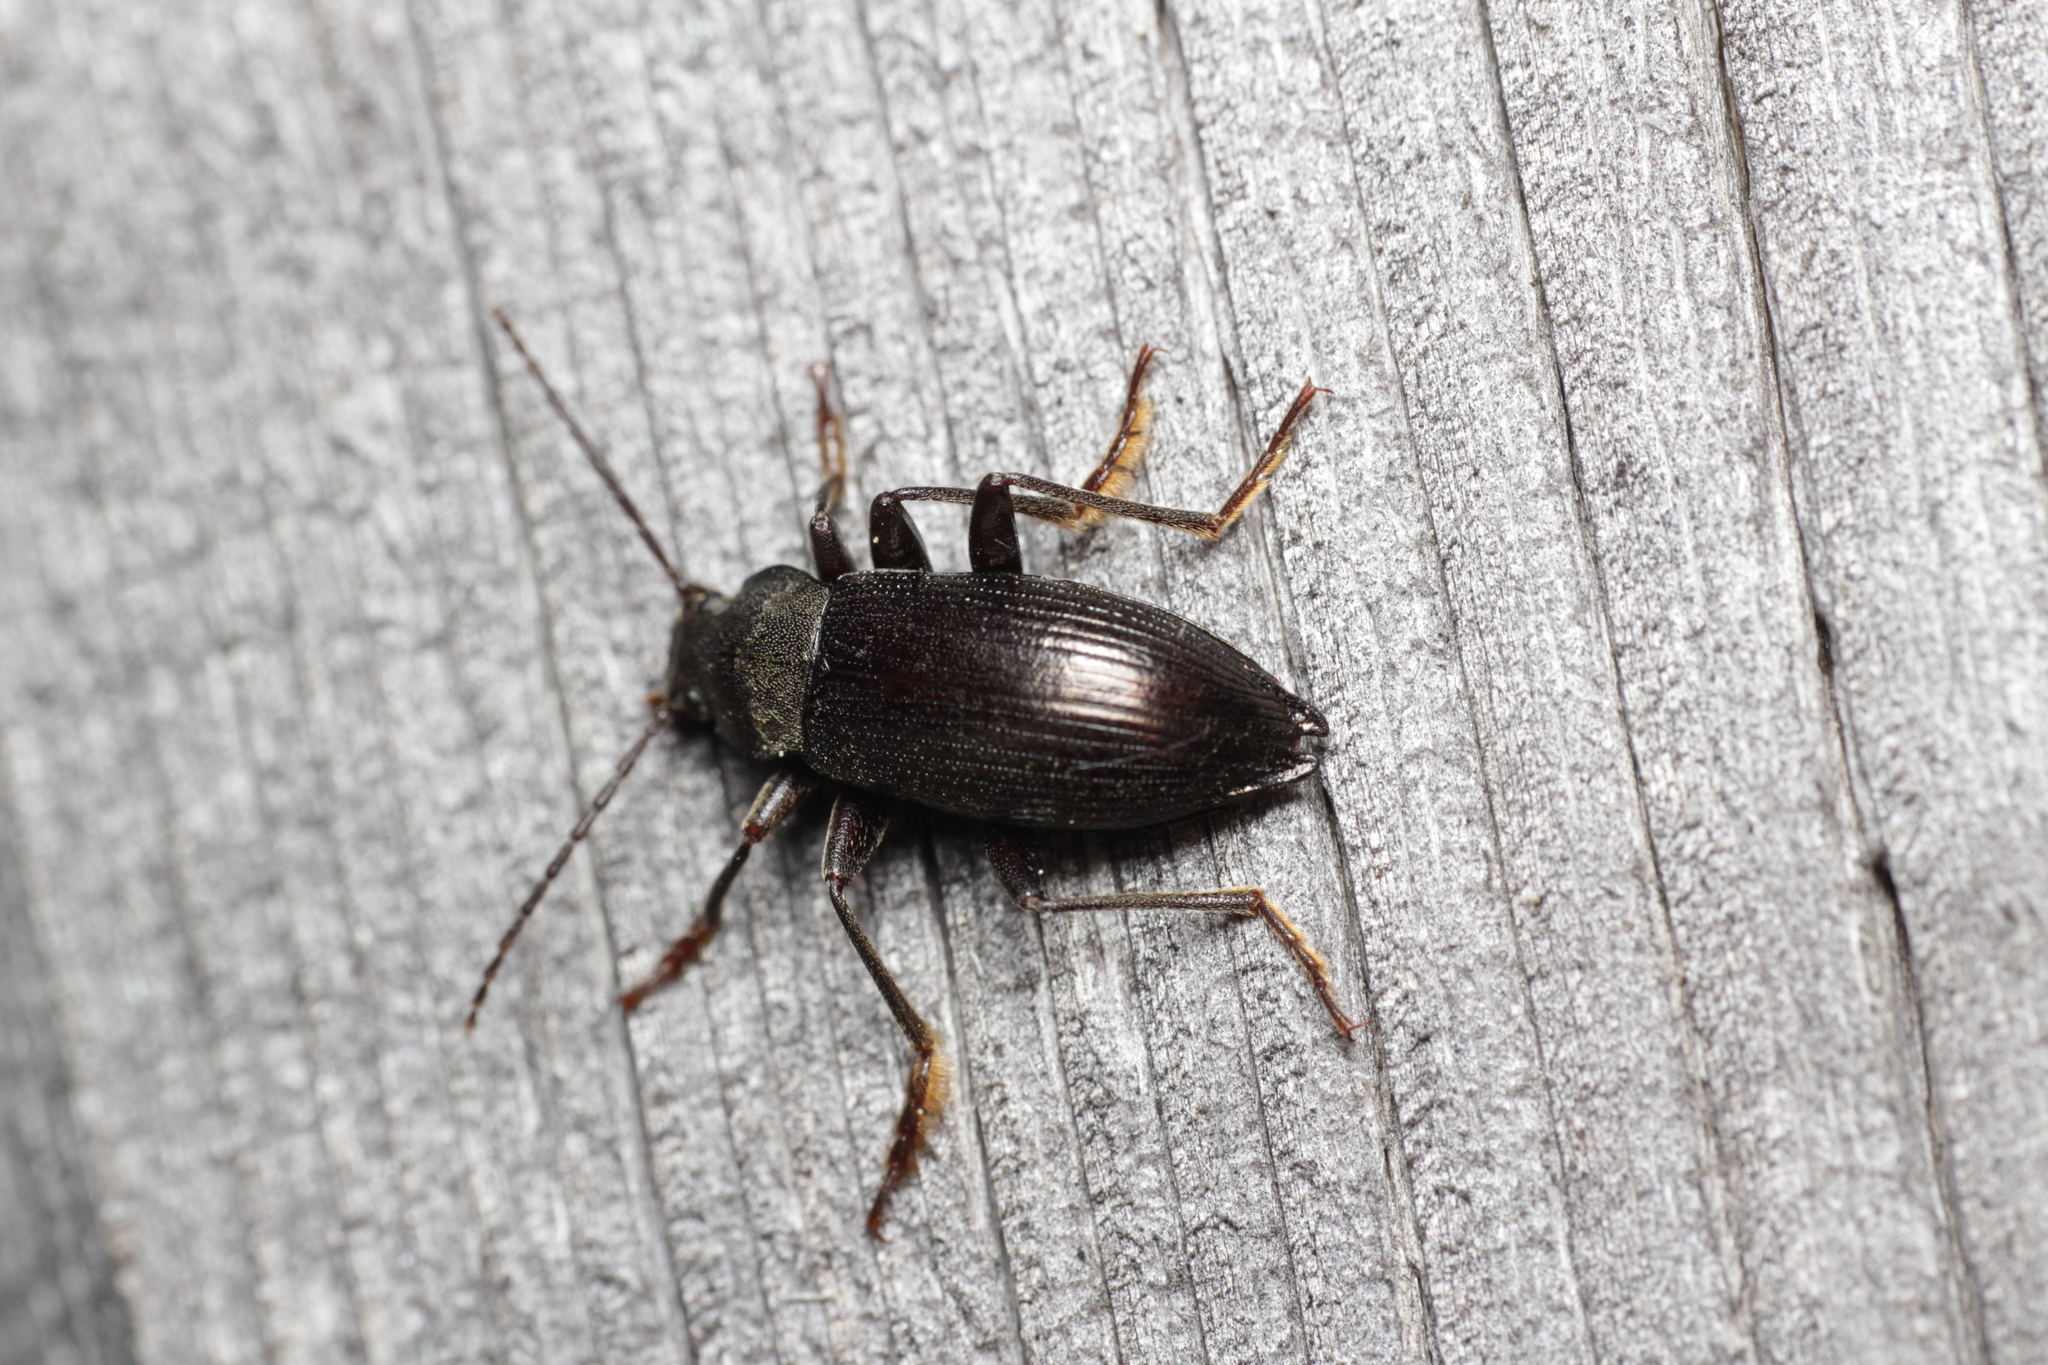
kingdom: Animalia
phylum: Arthropoda
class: Insecta
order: Coleoptera
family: Tenebrionidae
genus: Stenomax
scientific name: Stenomax aeneus
